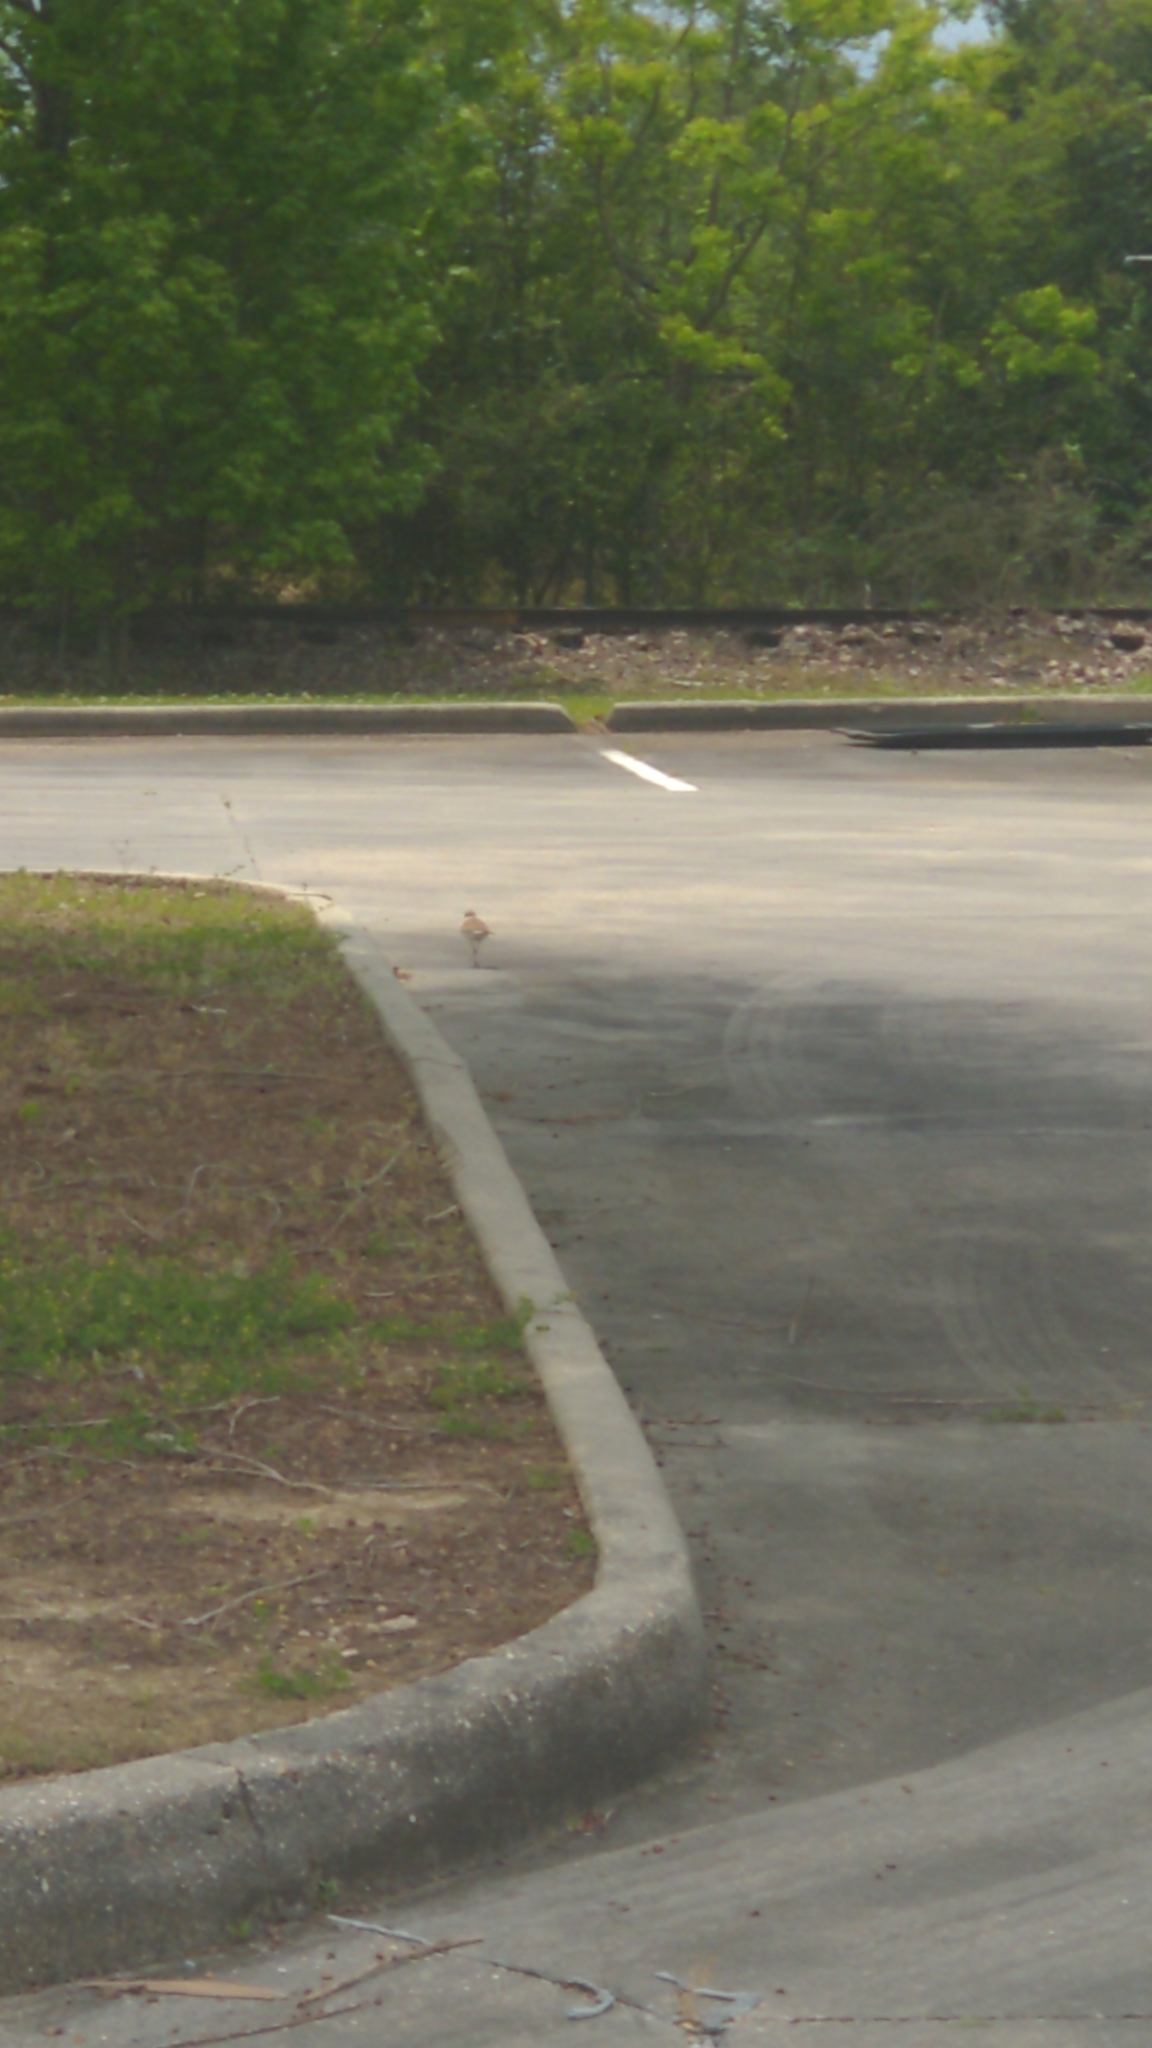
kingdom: Animalia
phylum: Chordata
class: Aves
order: Charadriiformes
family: Charadriidae
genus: Charadrius
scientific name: Charadrius vociferus
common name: Killdeer
